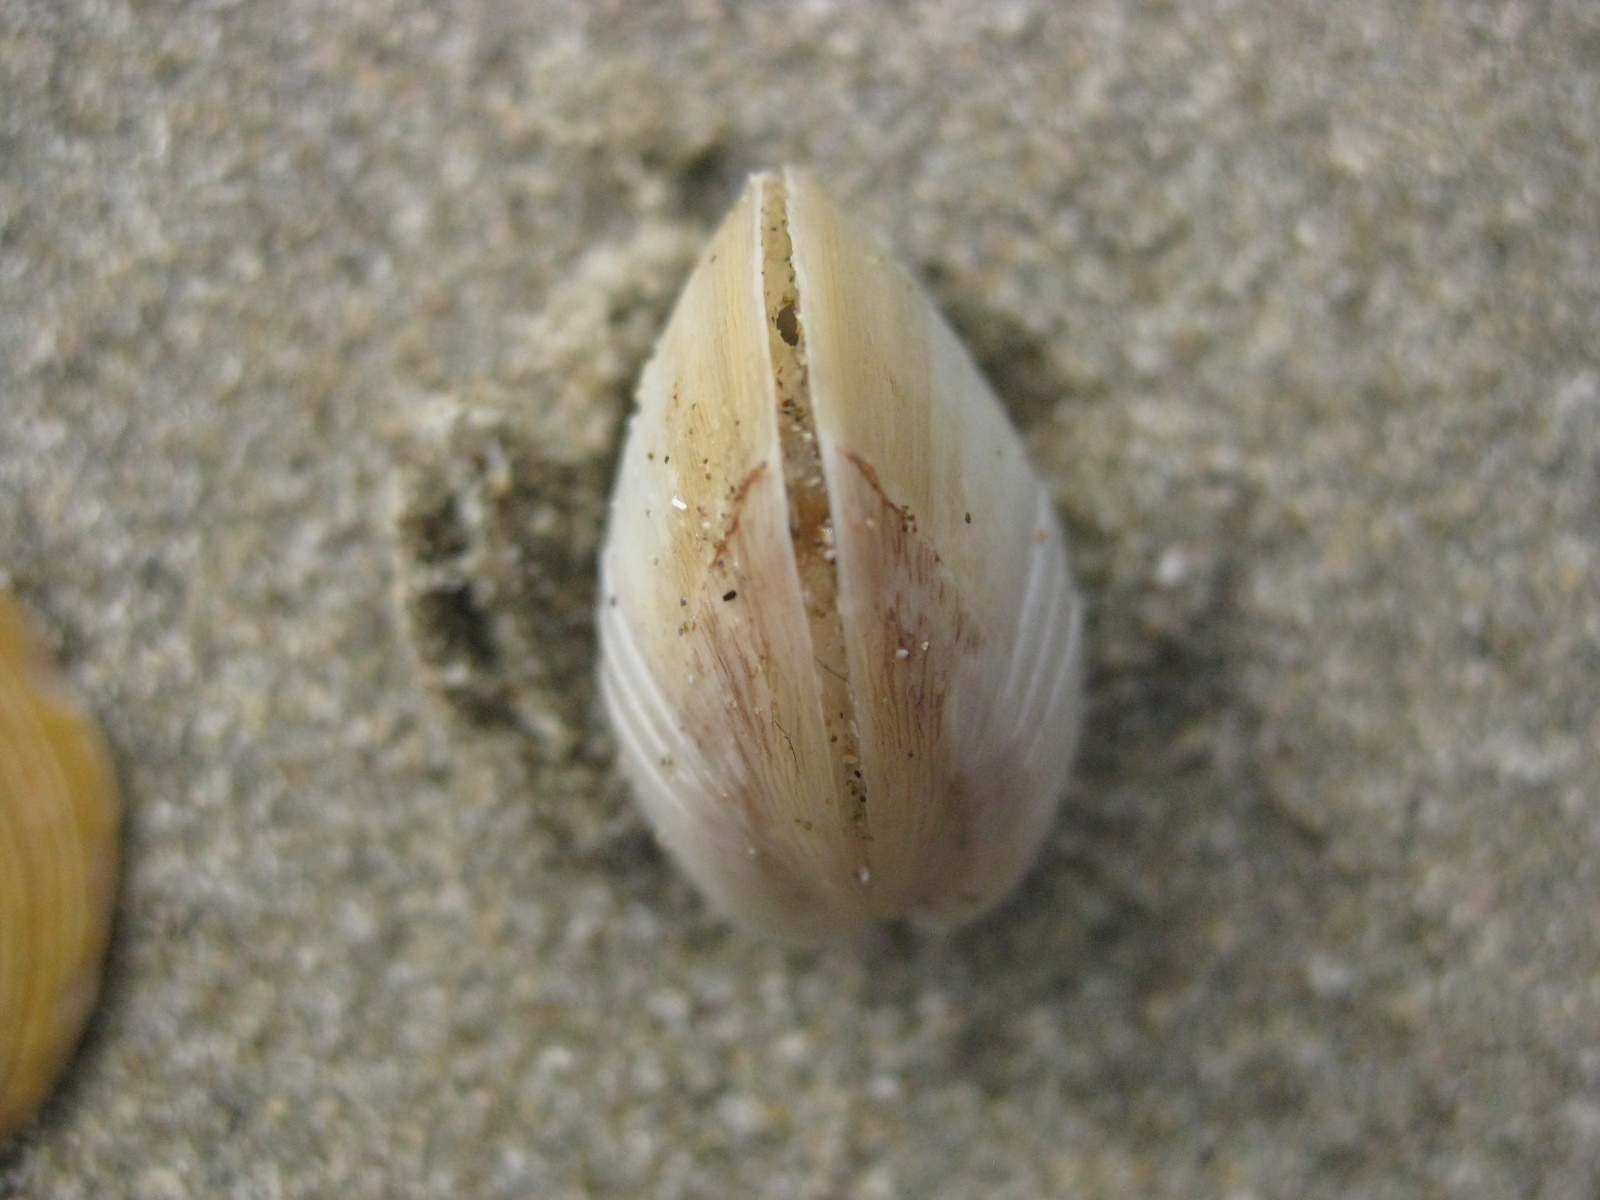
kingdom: Animalia
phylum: Mollusca
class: Bivalvia
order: Venerida
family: Mactridae
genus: Spisula
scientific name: Spisula discors
